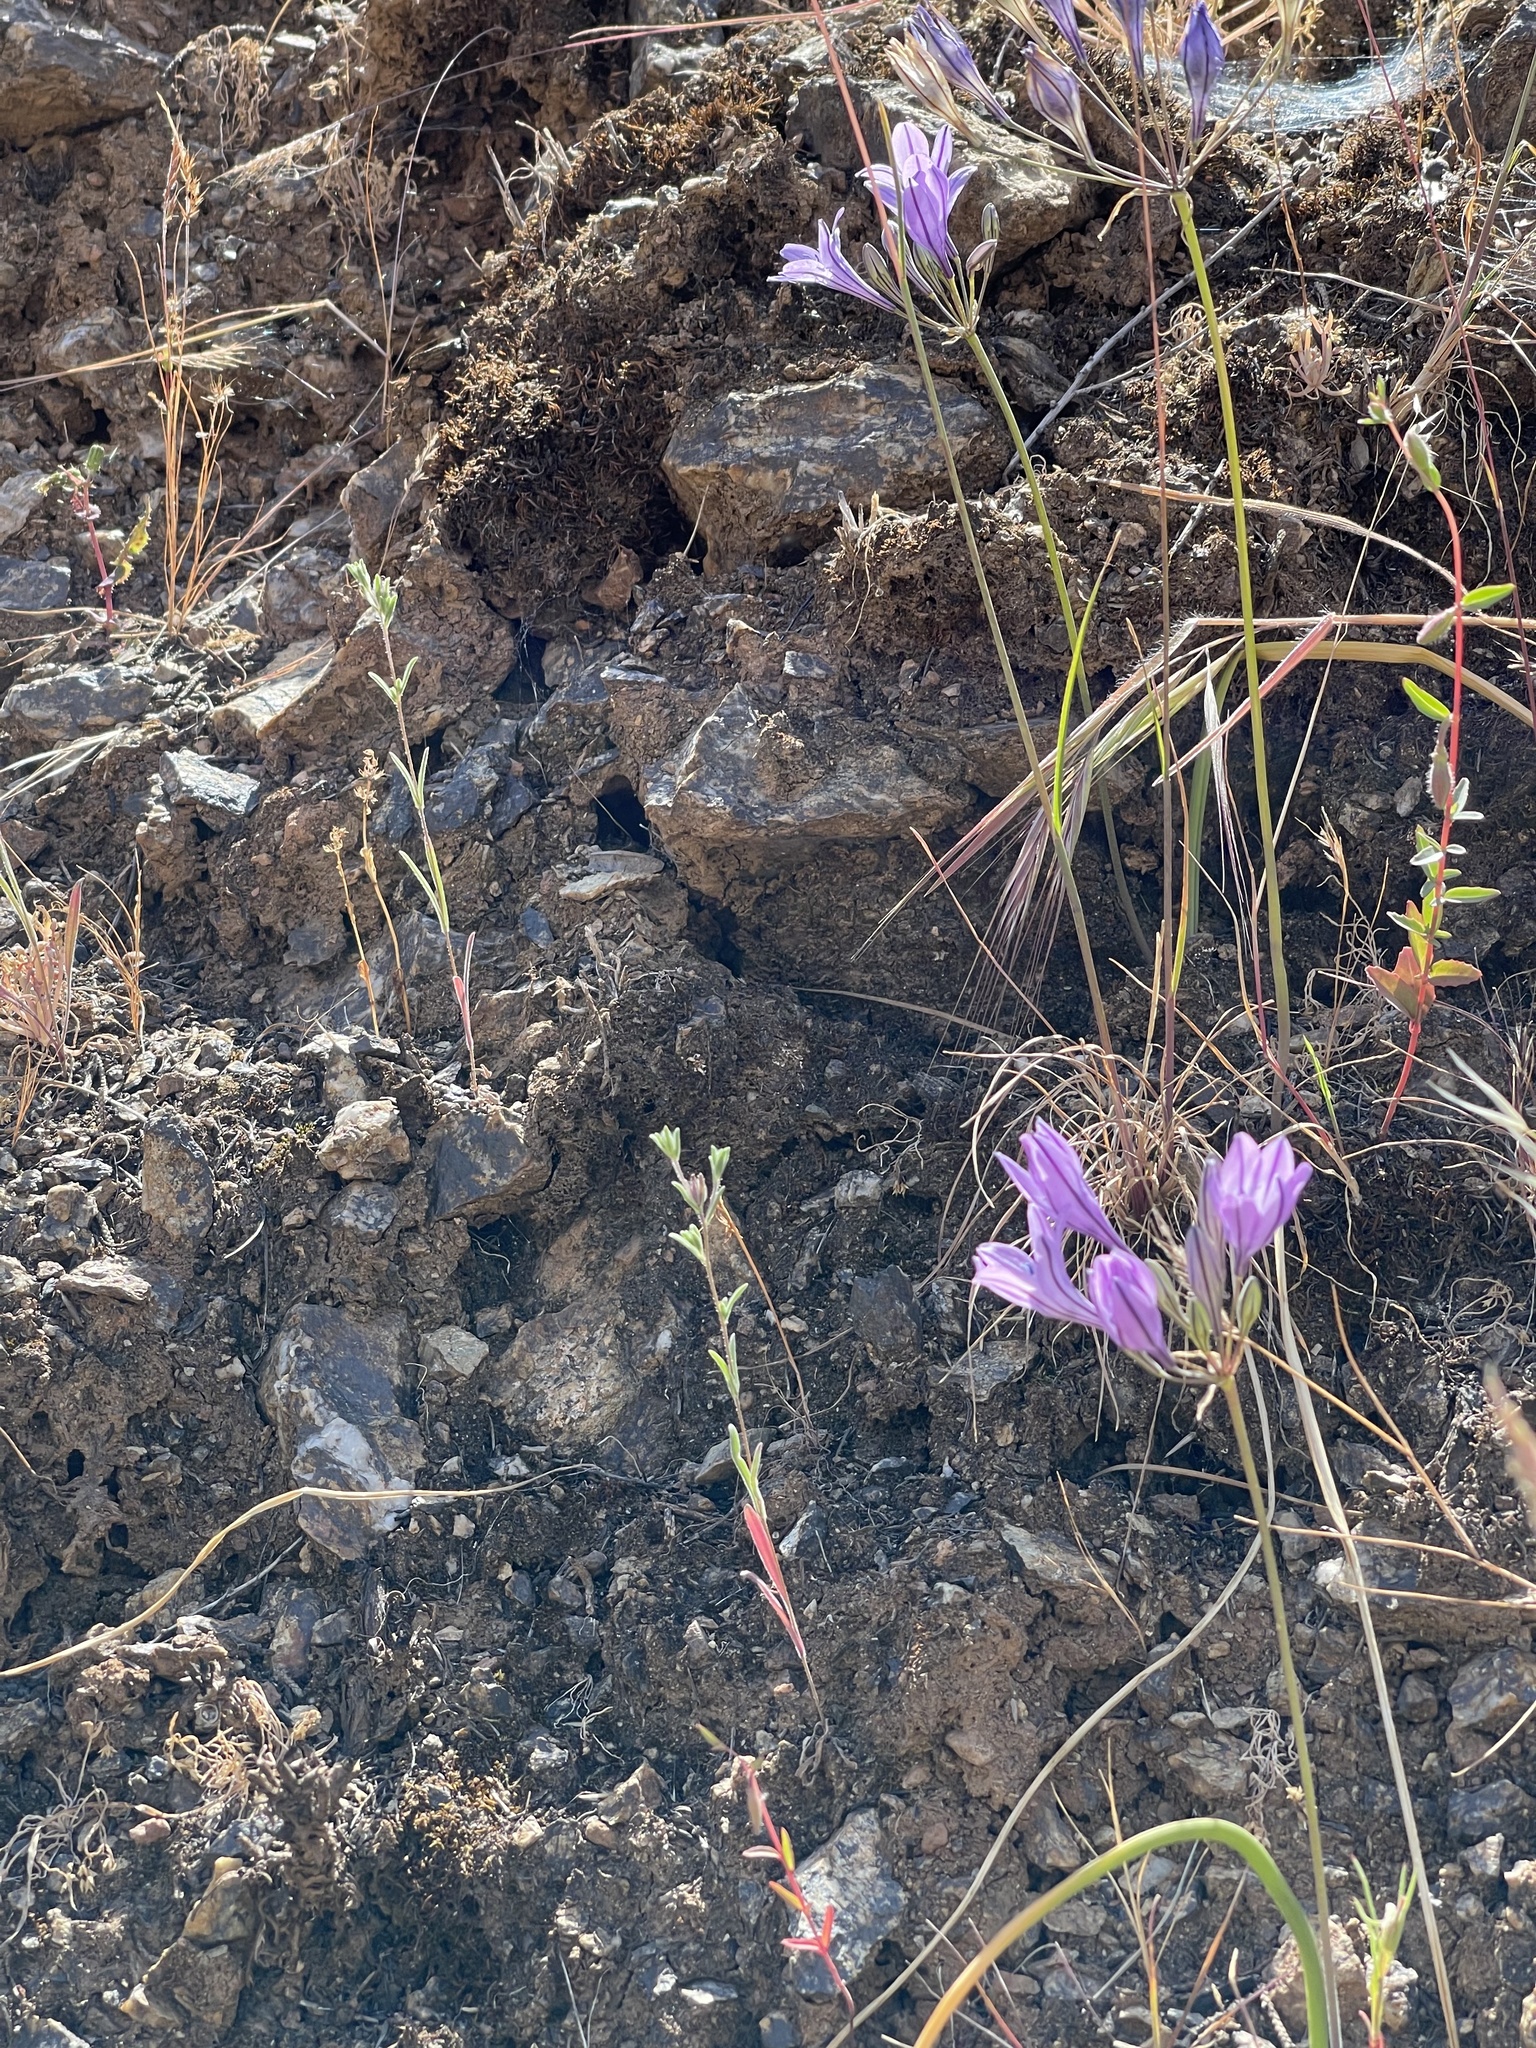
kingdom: Plantae
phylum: Tracheophyta
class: Liliopsida
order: Asparagales
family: Asparagaceae
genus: Triteleia
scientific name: Triteleia laxa
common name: Triplet-lily
